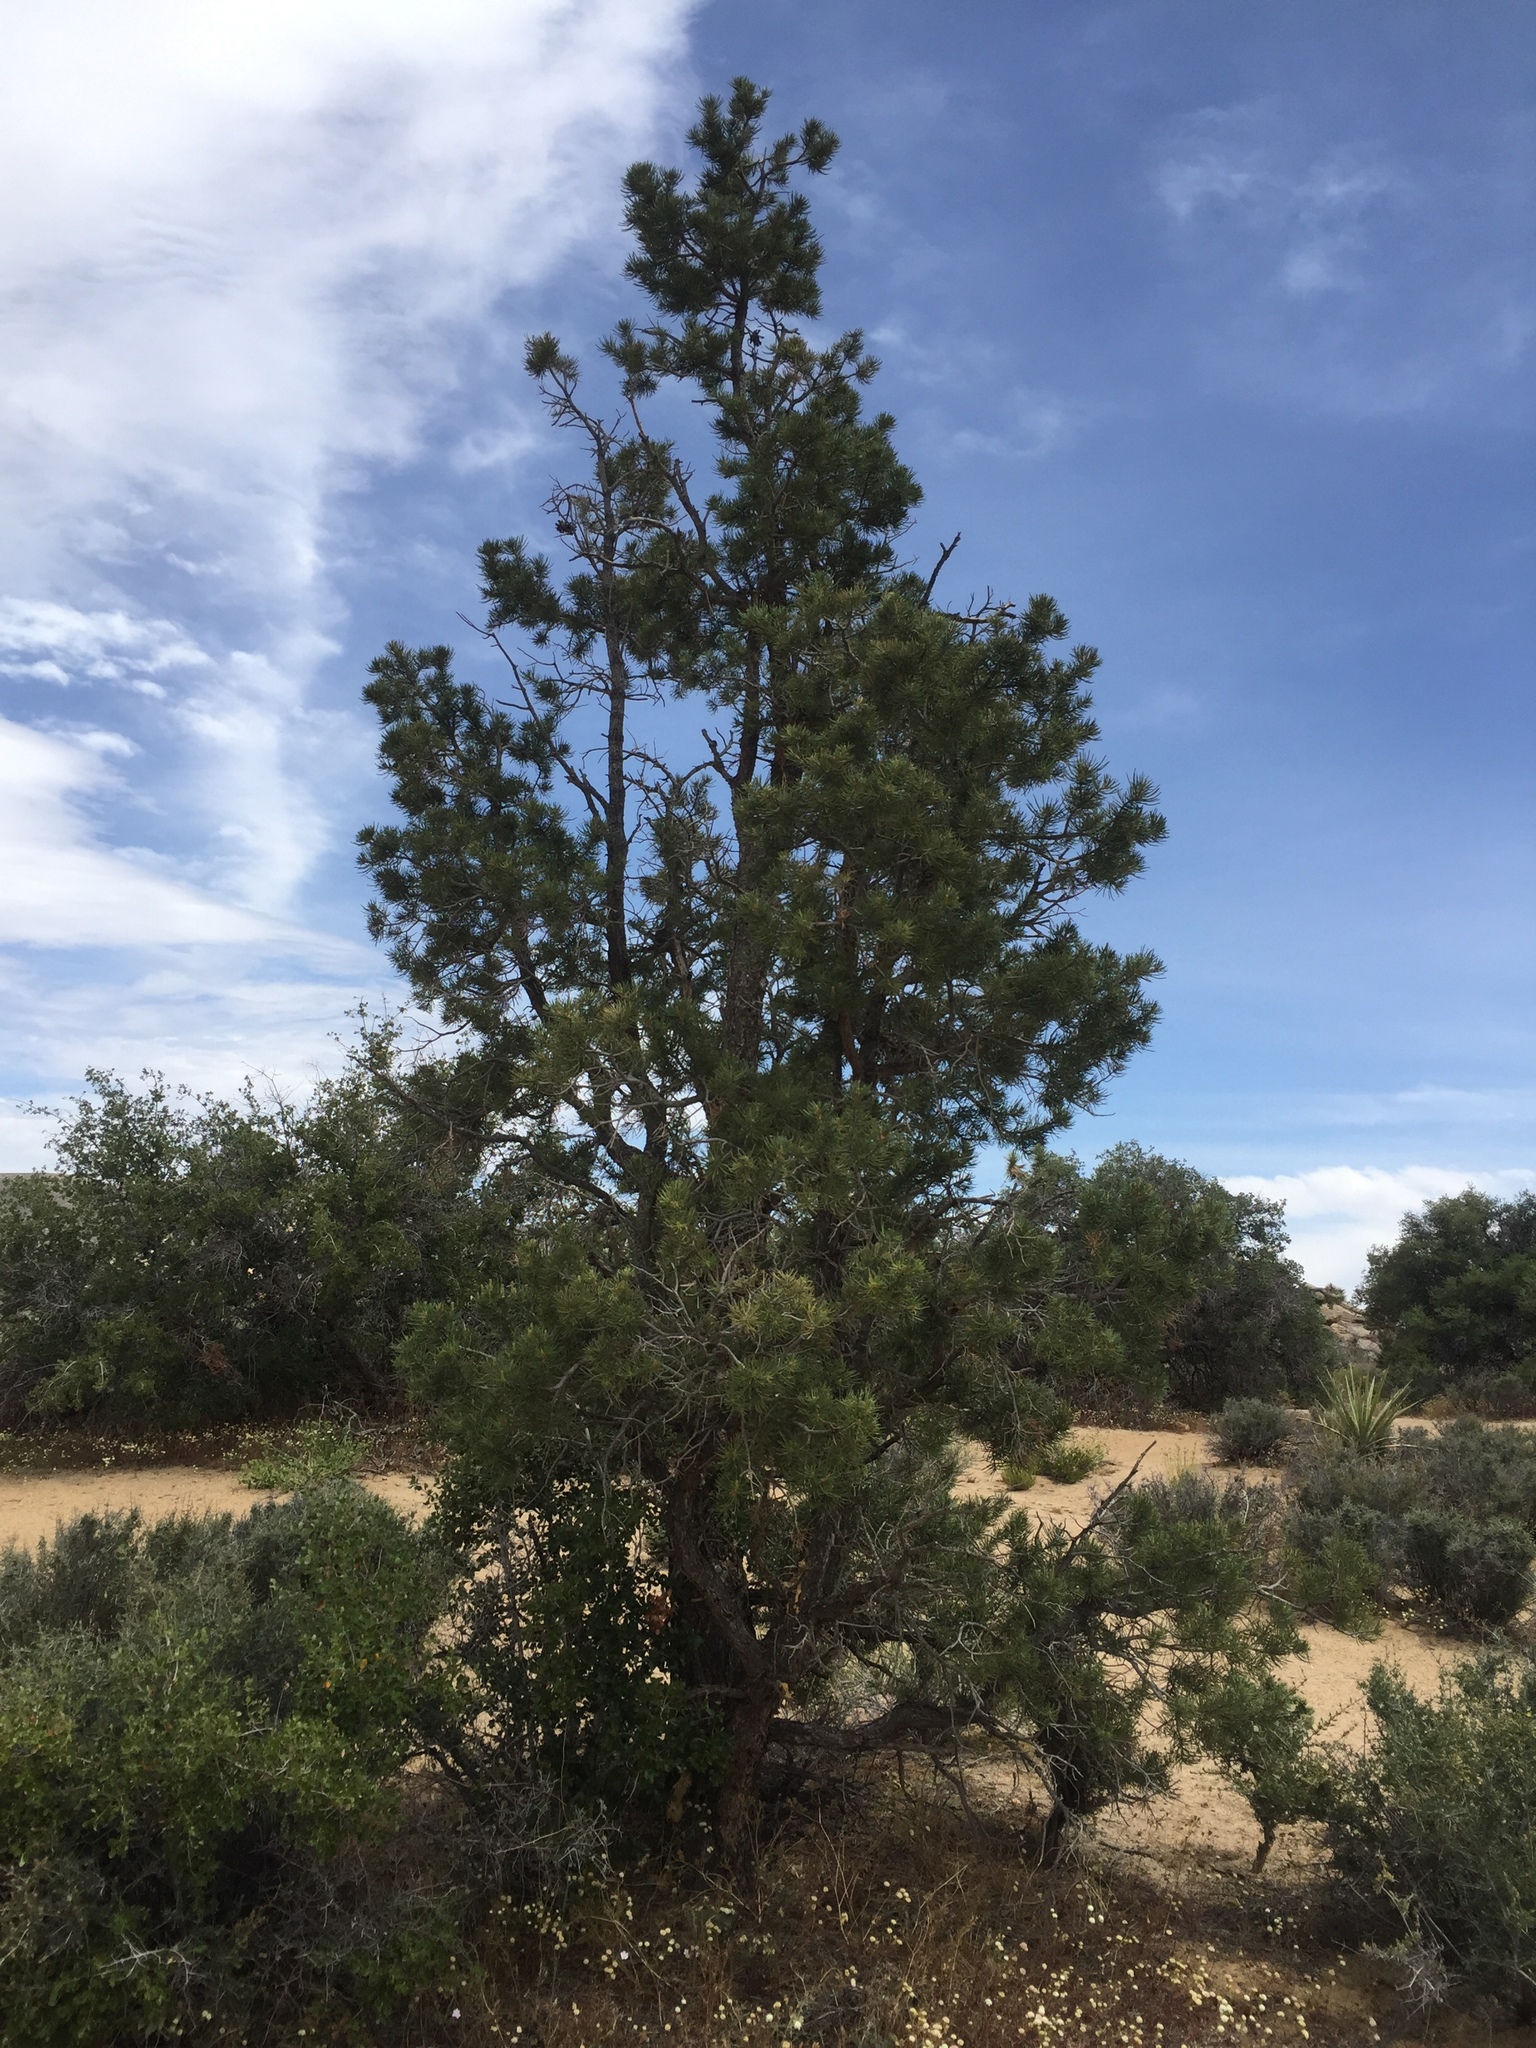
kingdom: Plantae
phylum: Tracheophyta
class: Pinopsida
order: Pinales
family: Pinaceae
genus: Pinus
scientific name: Pinus monophylla
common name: One-leaved nut pine
